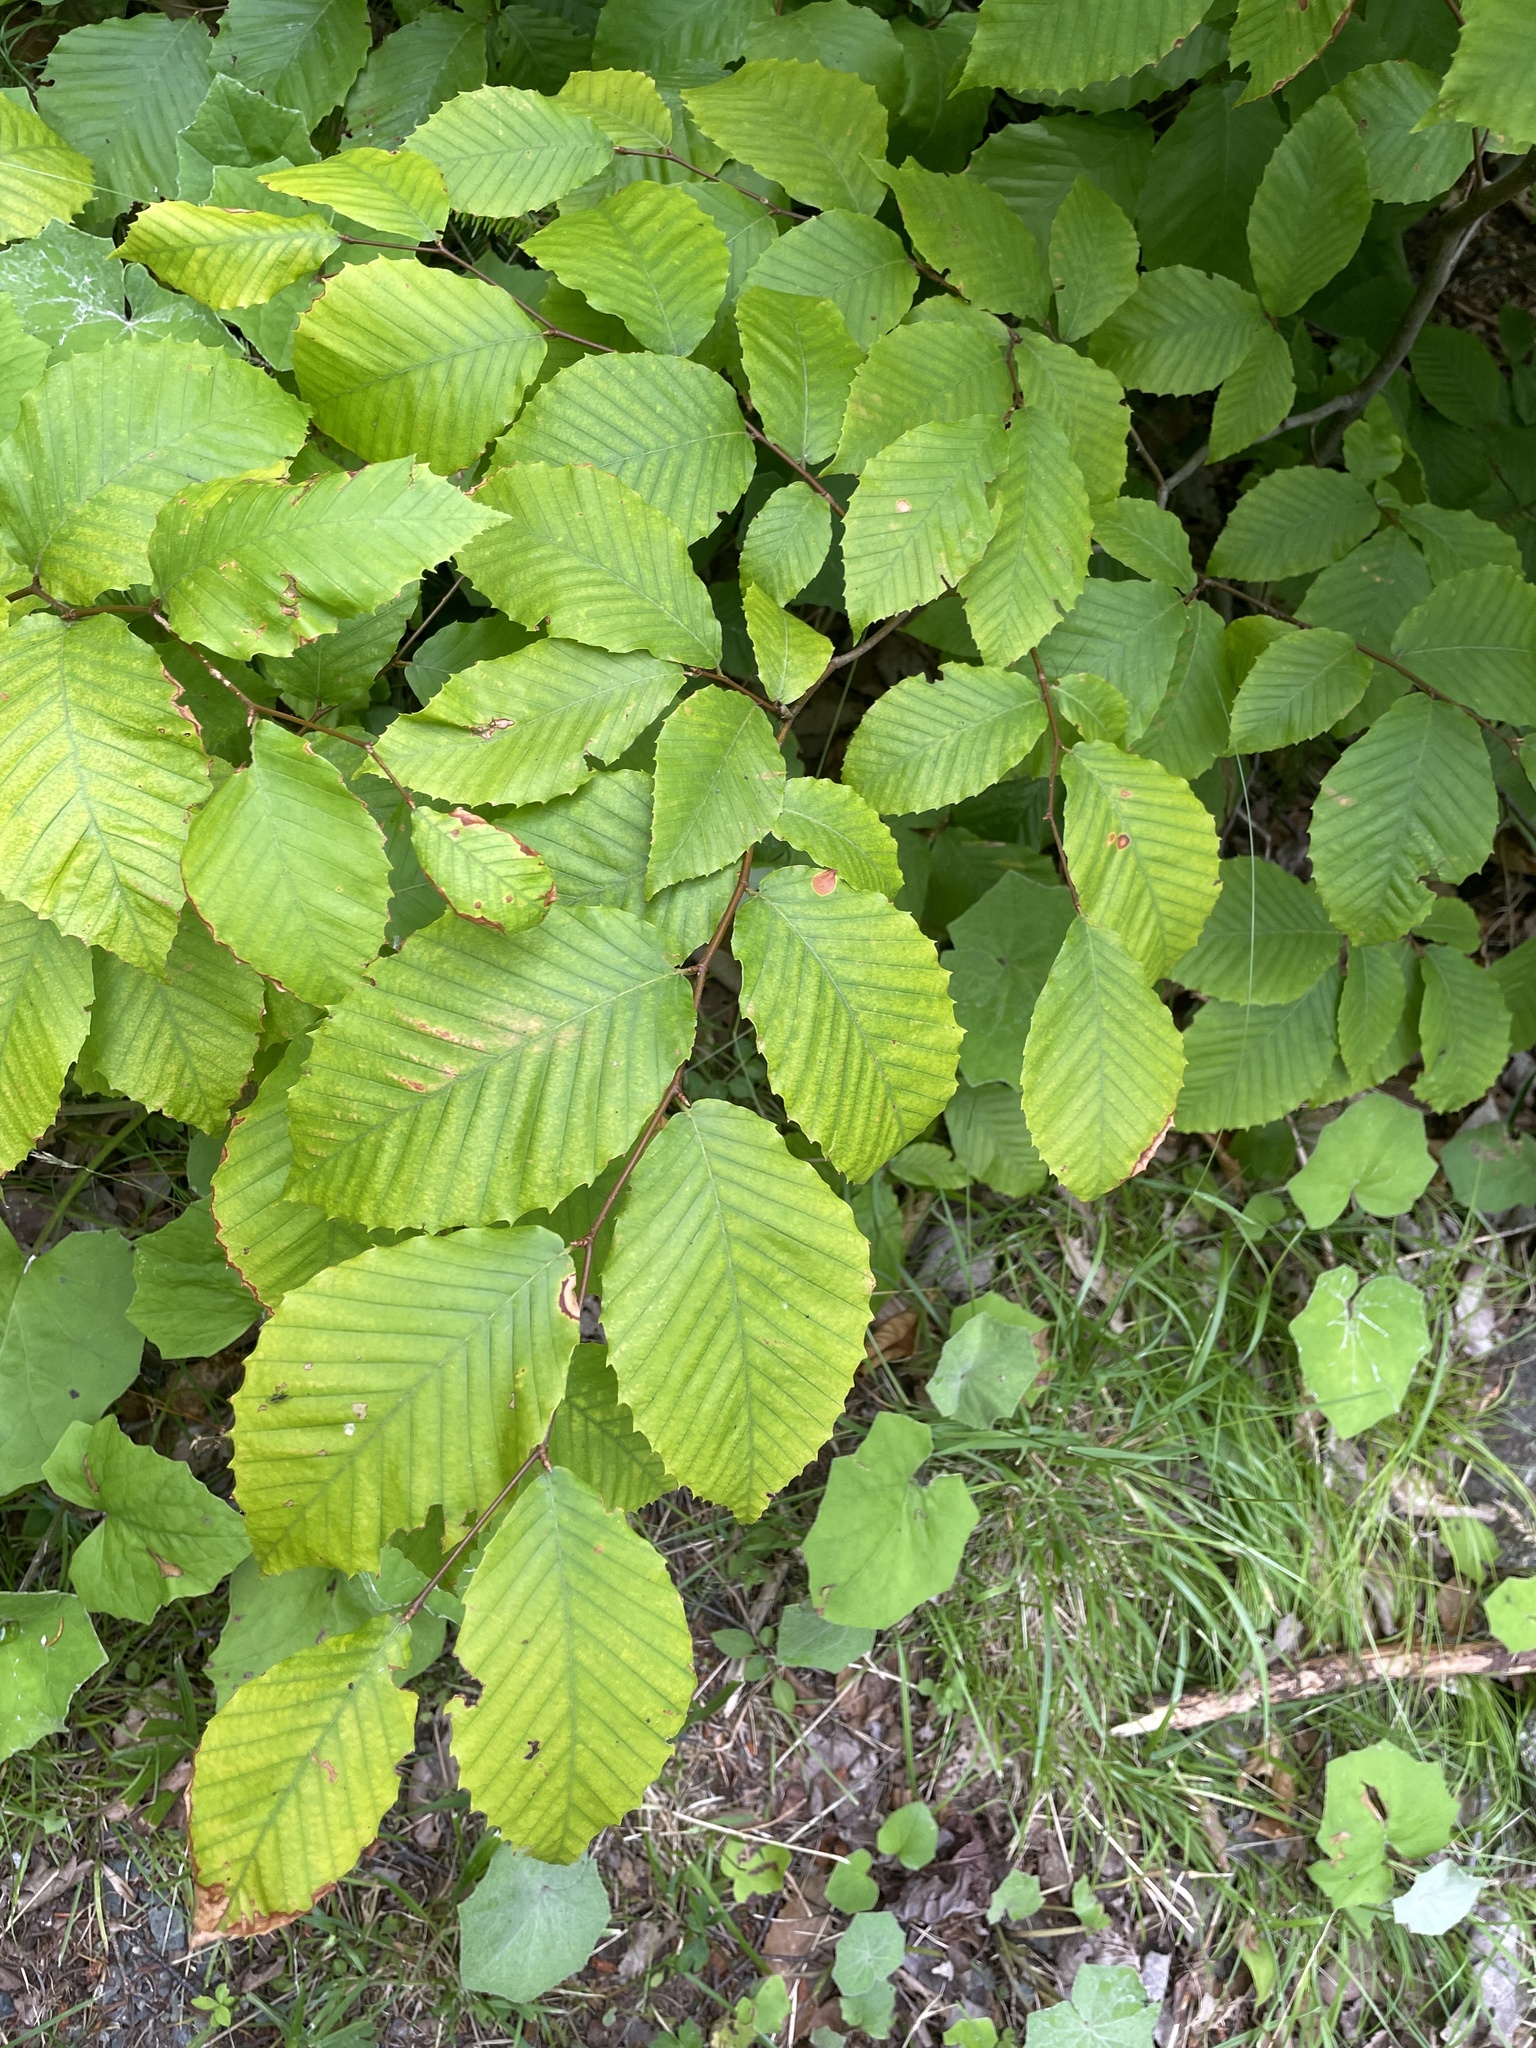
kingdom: Plantae
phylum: Tracheophyta
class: Magnoliopsida
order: Fagales
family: Fagaceae
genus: Fagus
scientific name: Fagus grandifolia
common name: American beech
